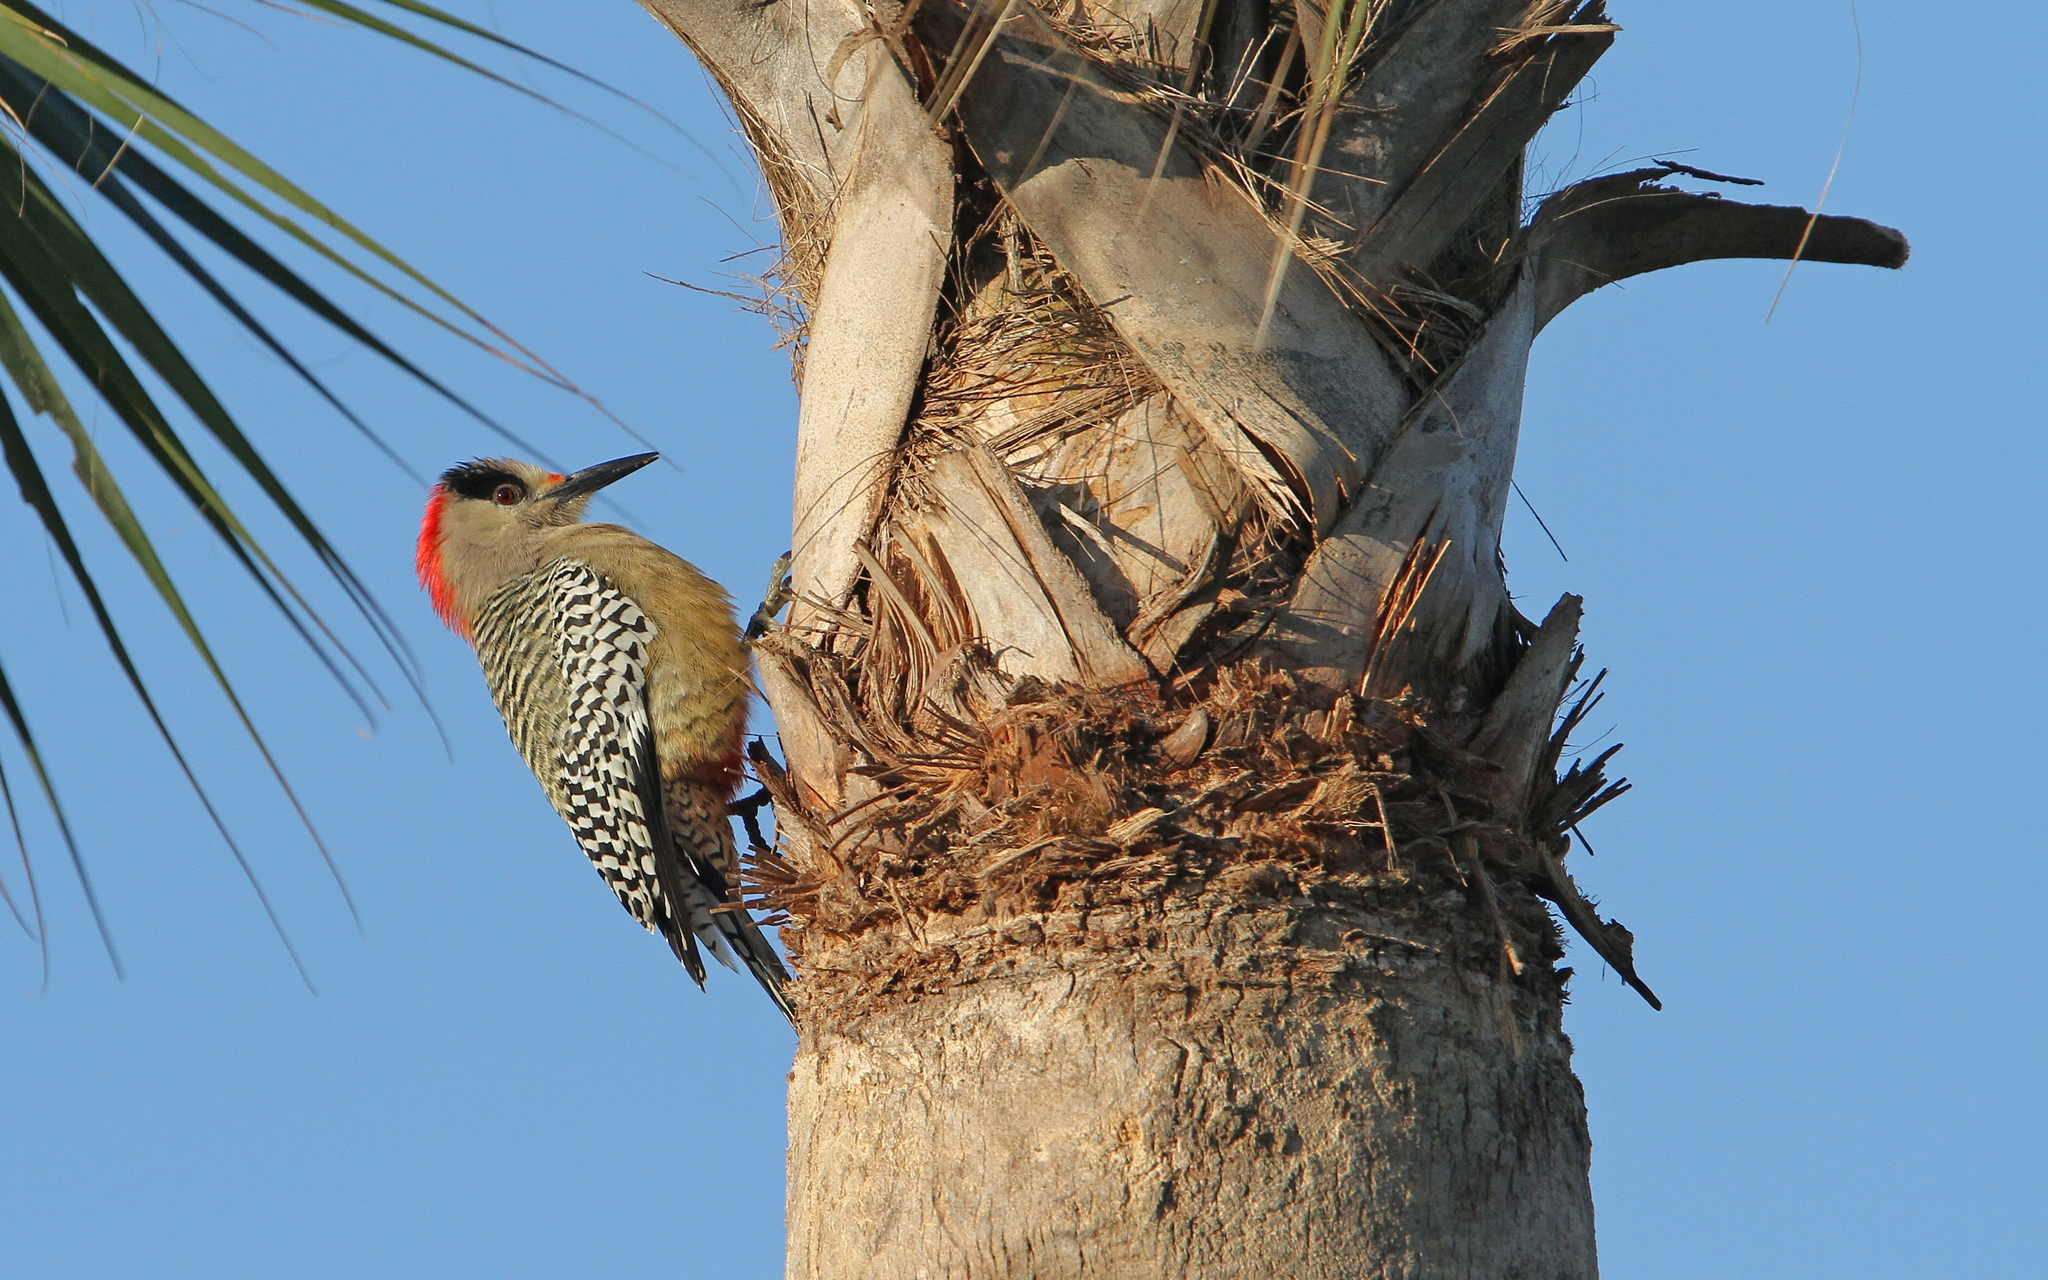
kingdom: Animalia
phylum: Chordata
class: Aves
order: Piciformes
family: Picidae
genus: Melanerpes
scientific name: Melanerpes superciliaris
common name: West indian woodpecker
